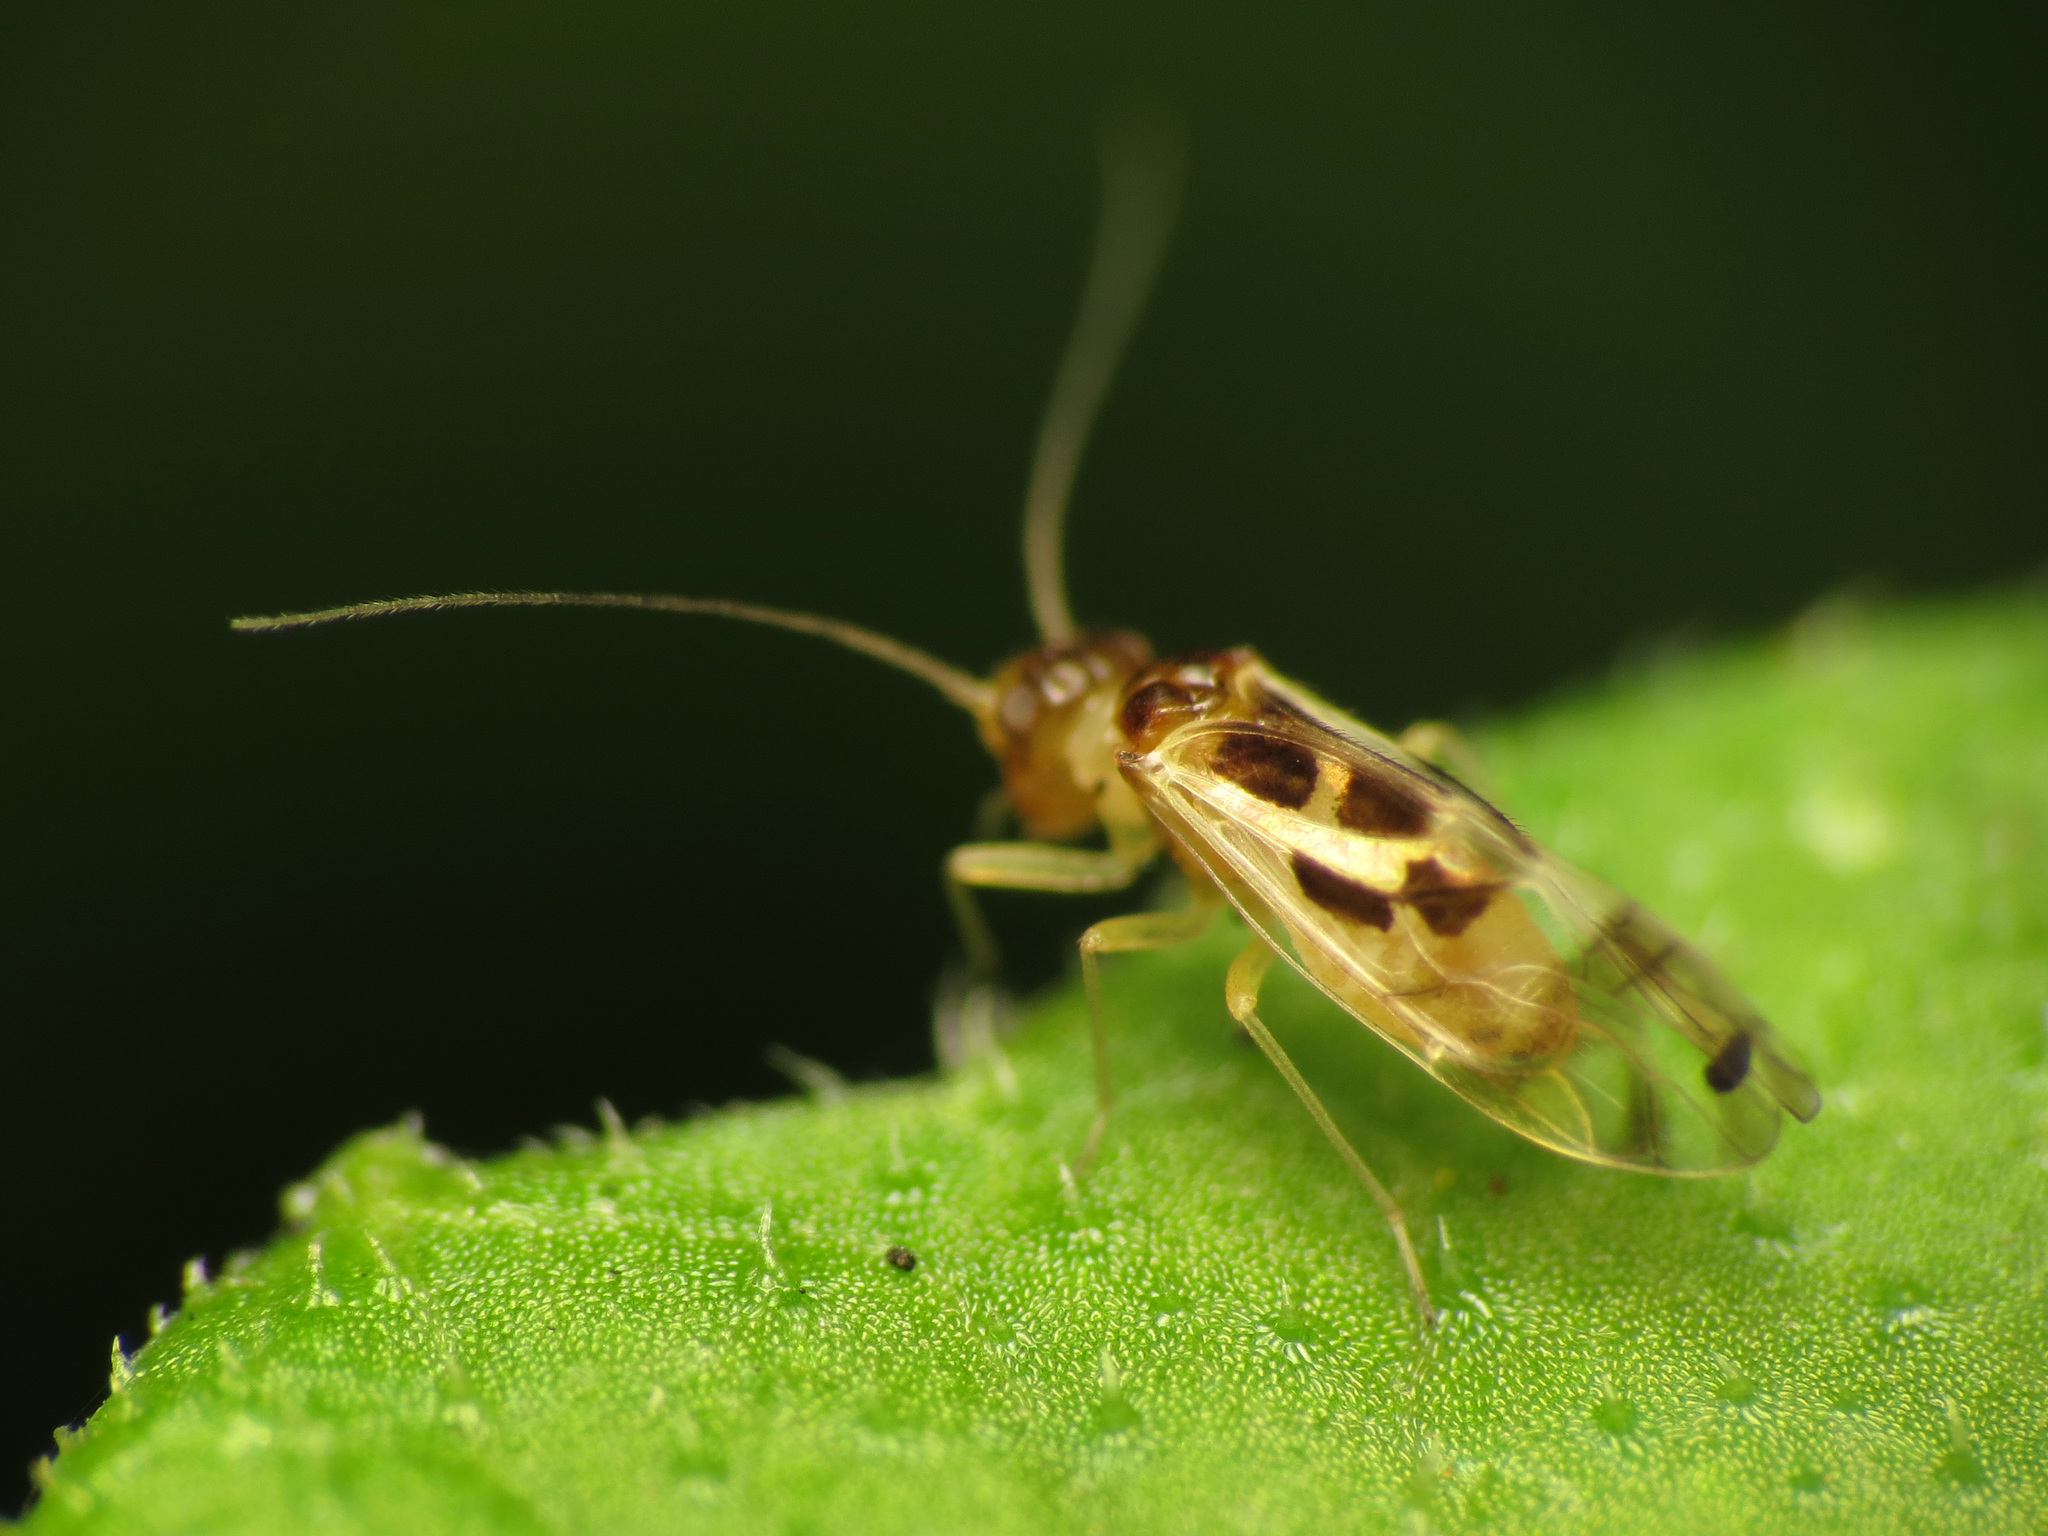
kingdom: Animalia
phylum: Arthropoda
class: Insecta
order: Psocodea
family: Stenopsocidae
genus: Graphopsocus
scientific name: Graphopsocus cruciatus
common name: Lizard bark louse
